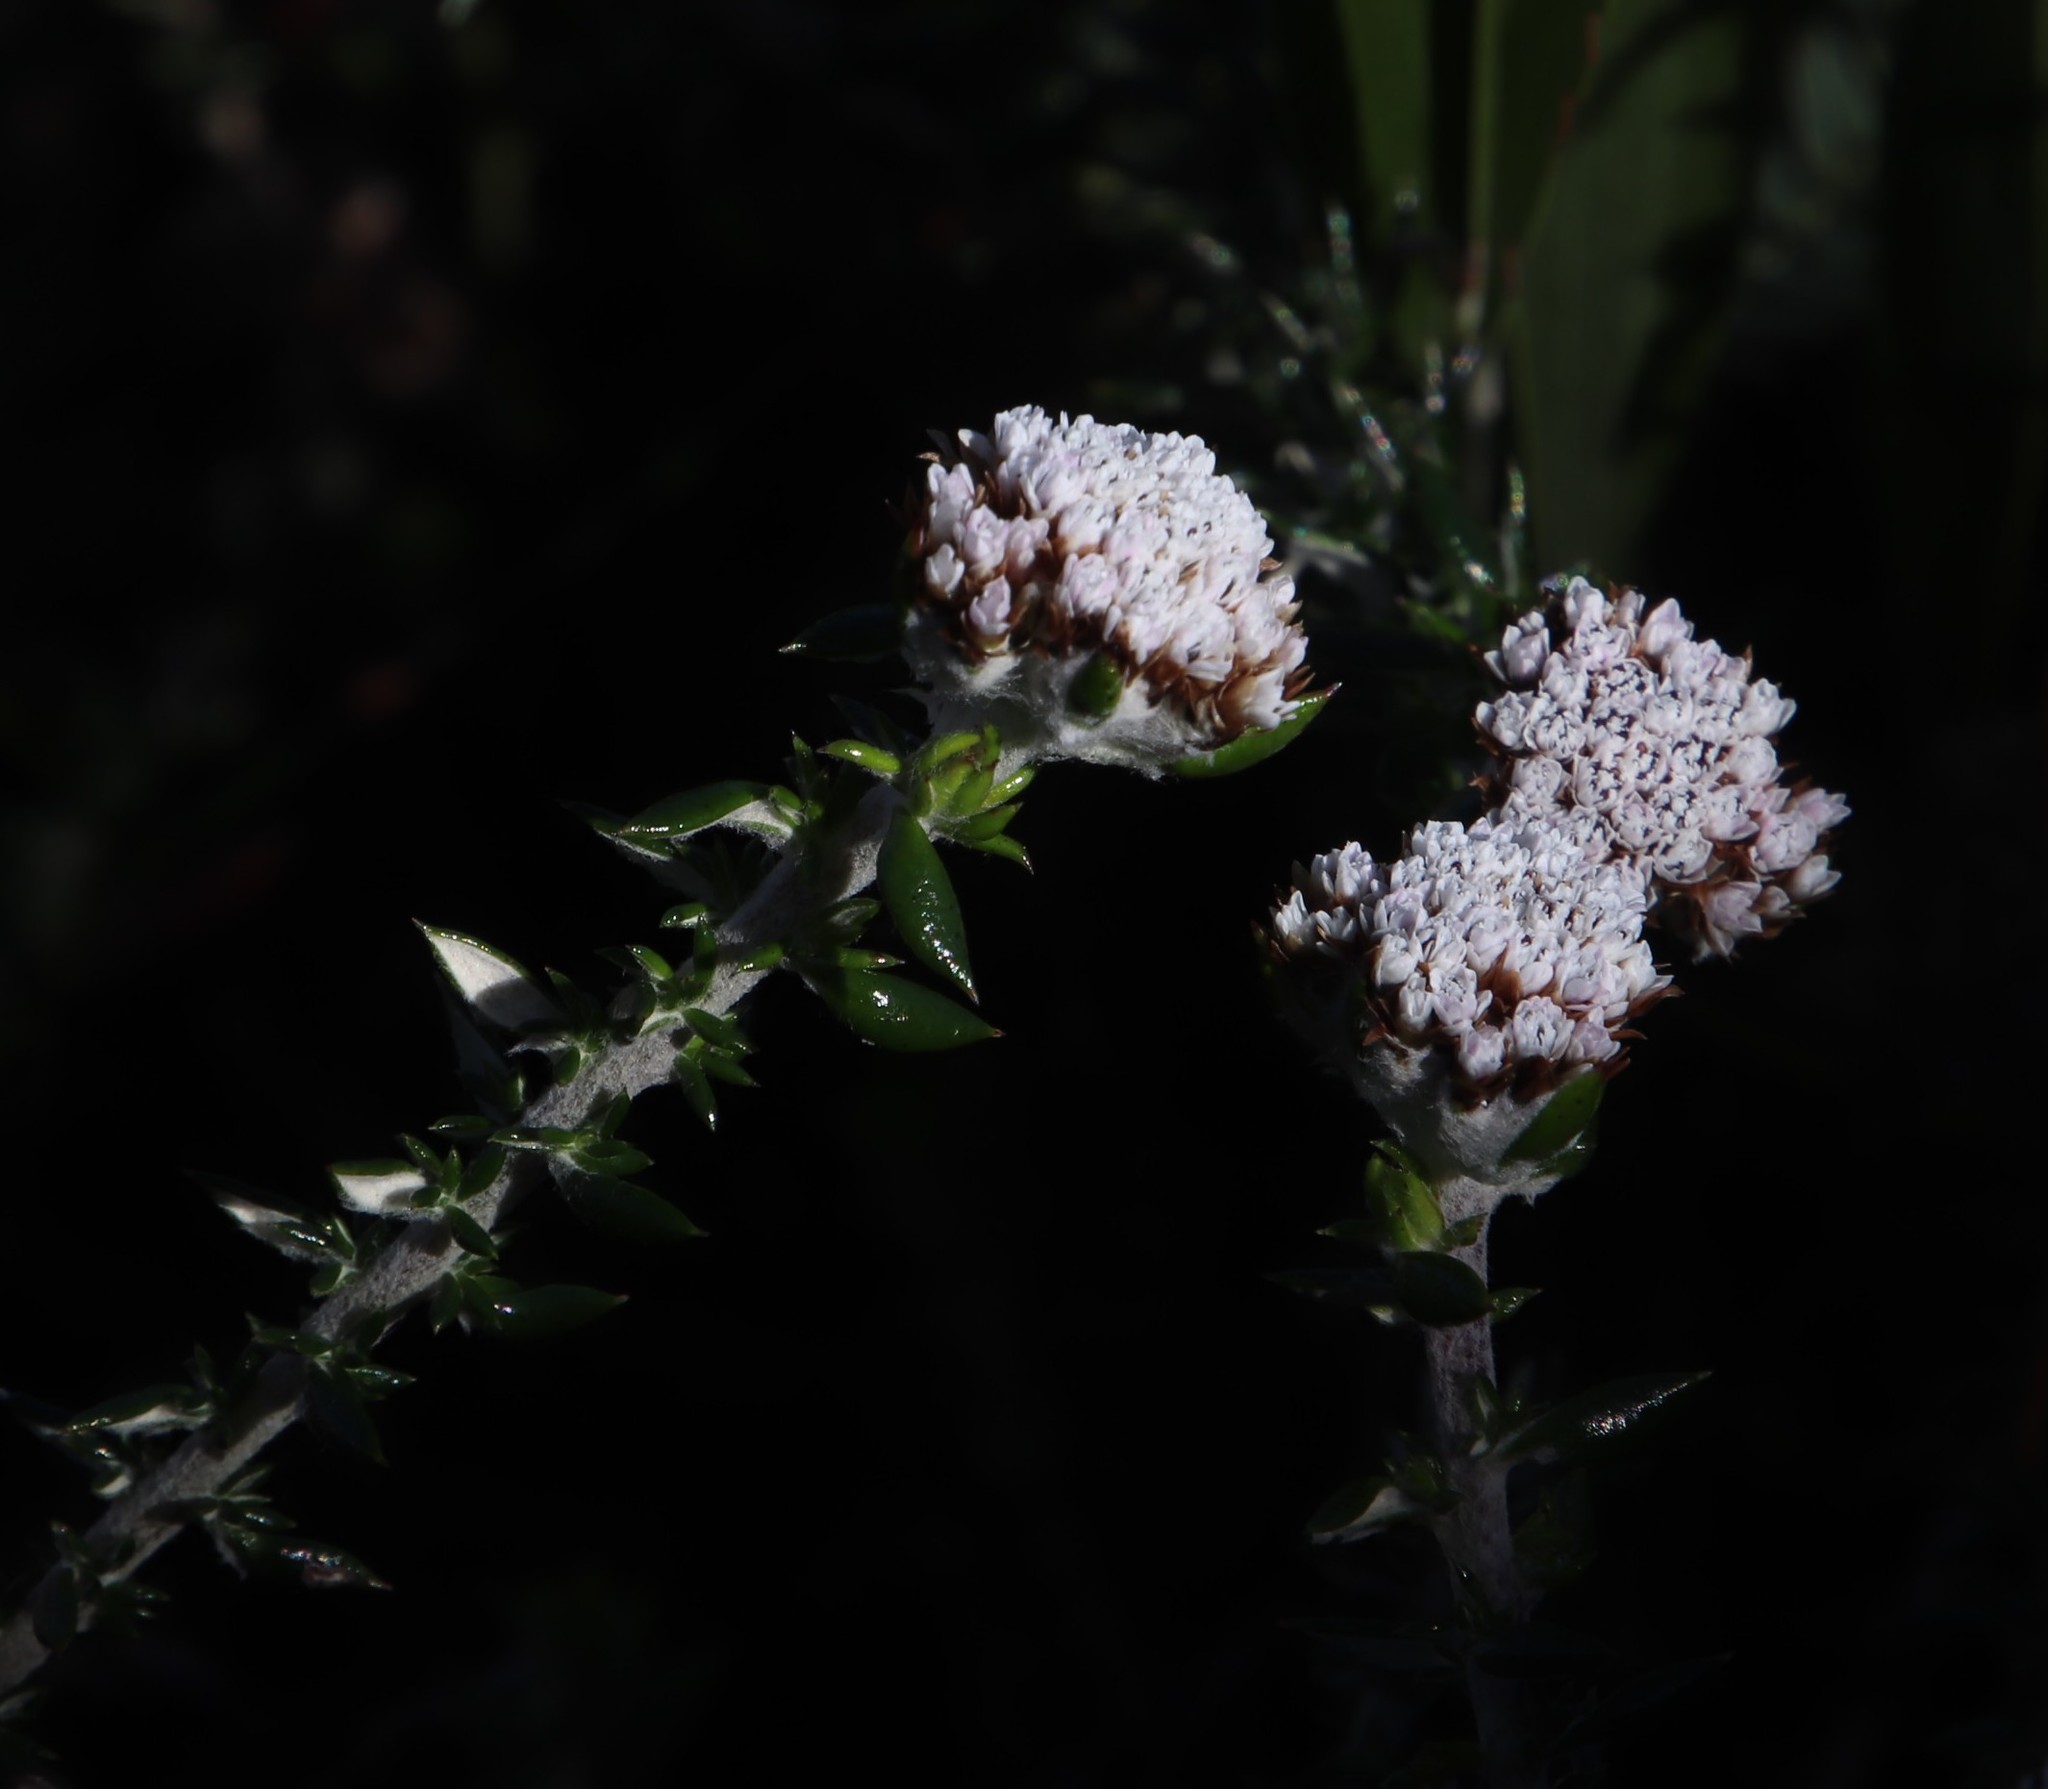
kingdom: Plantae
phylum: Tracheophyta
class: Magnoliopsida
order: Asterales
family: Asteraceae
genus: Metalasia
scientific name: Metalasia divergens
